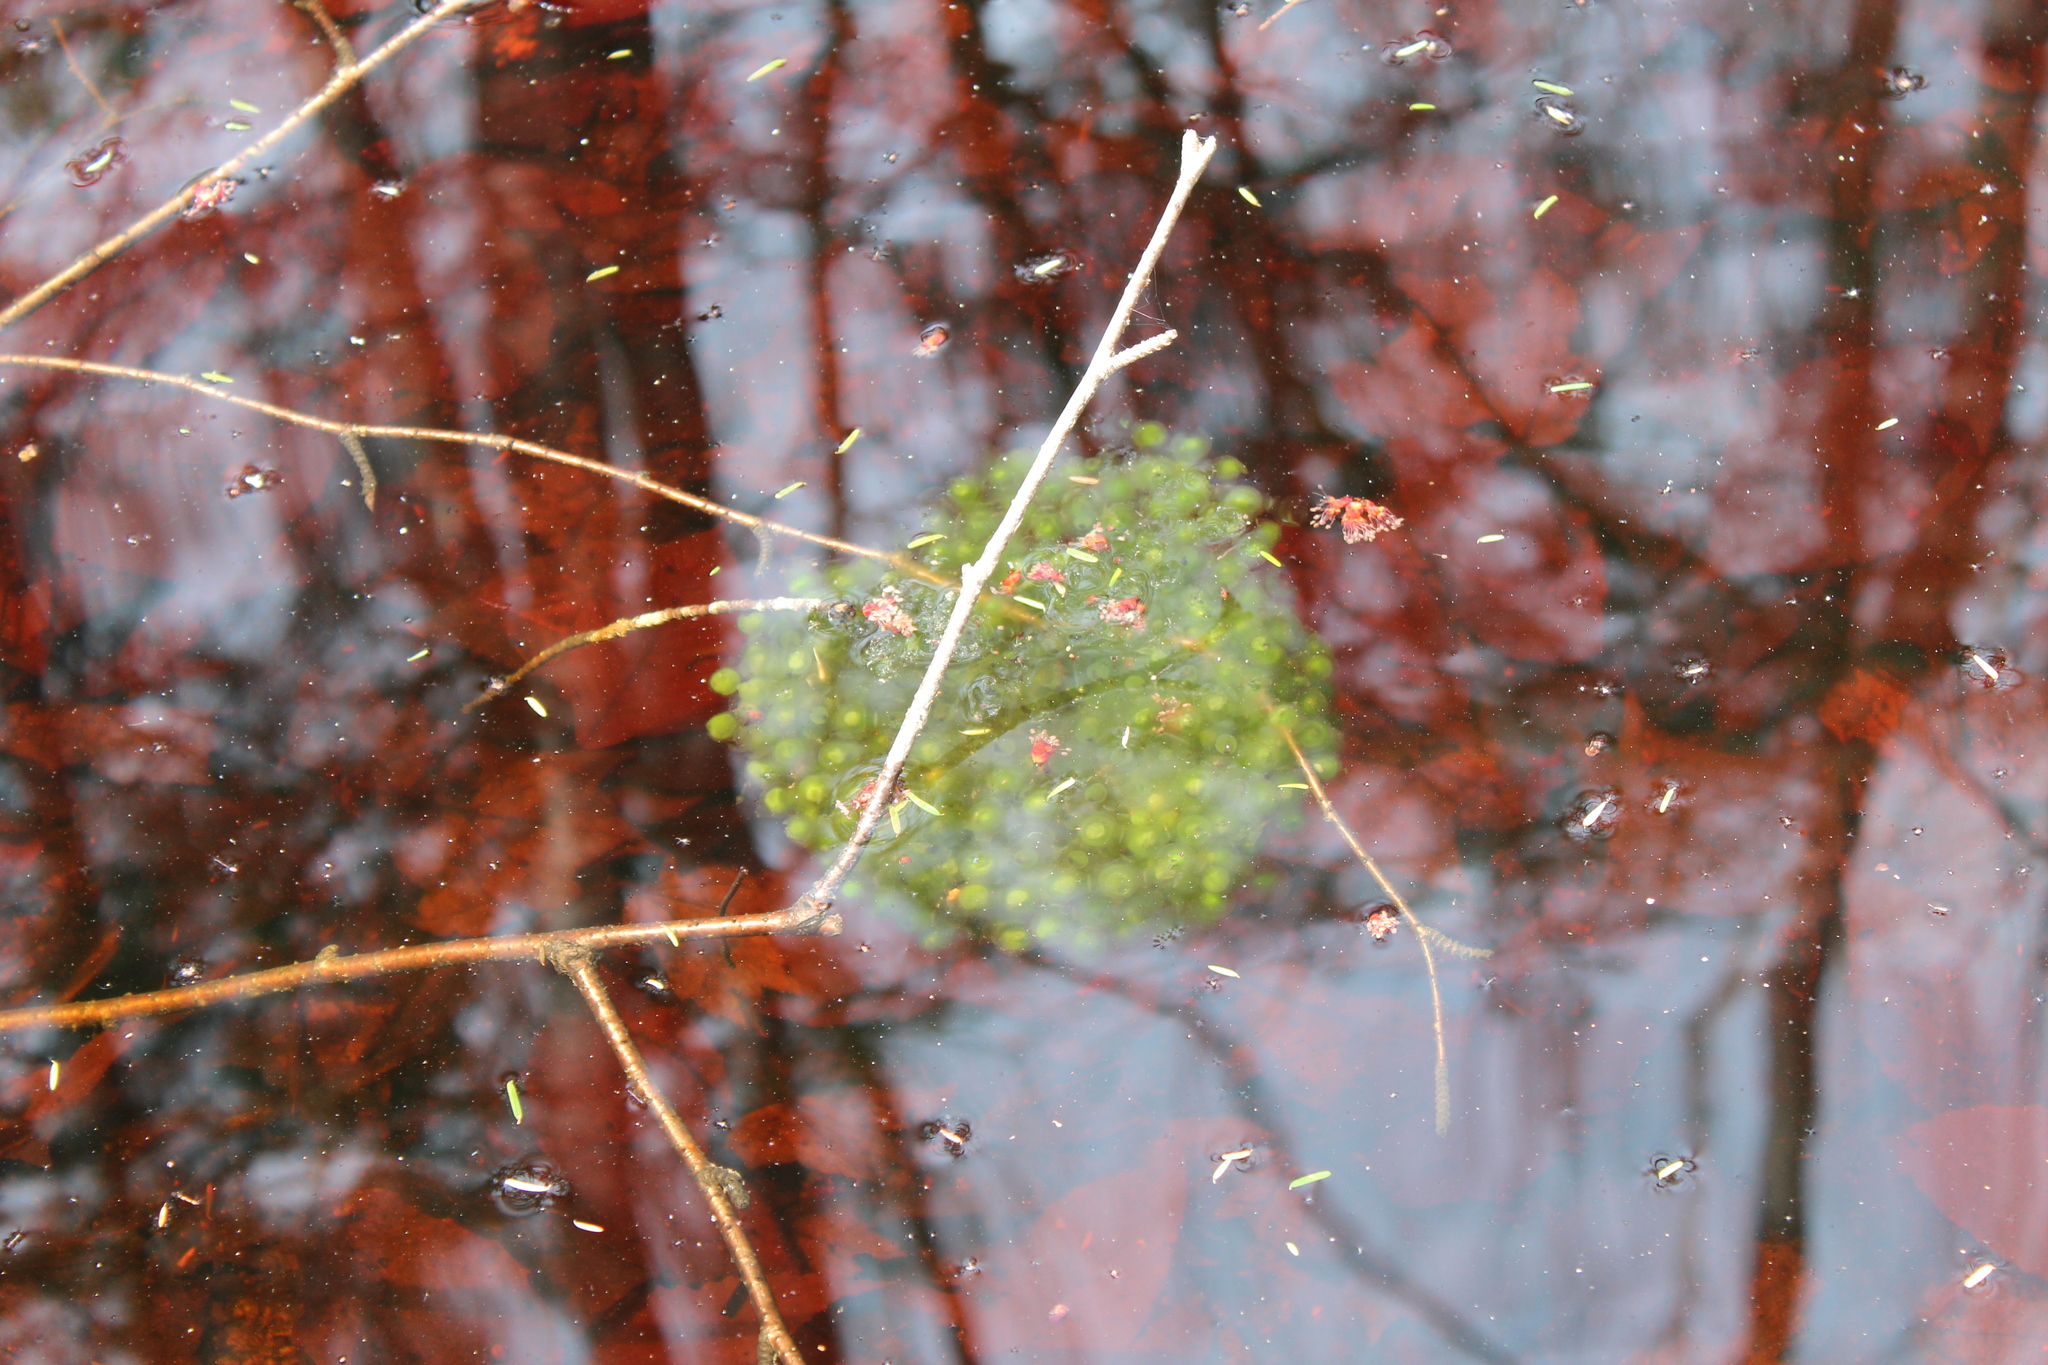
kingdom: Animalia
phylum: Chordata
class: Amphibia
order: Anura
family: Ranidae
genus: Lithobates
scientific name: Lithobates sylvaticus
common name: Wood frog
